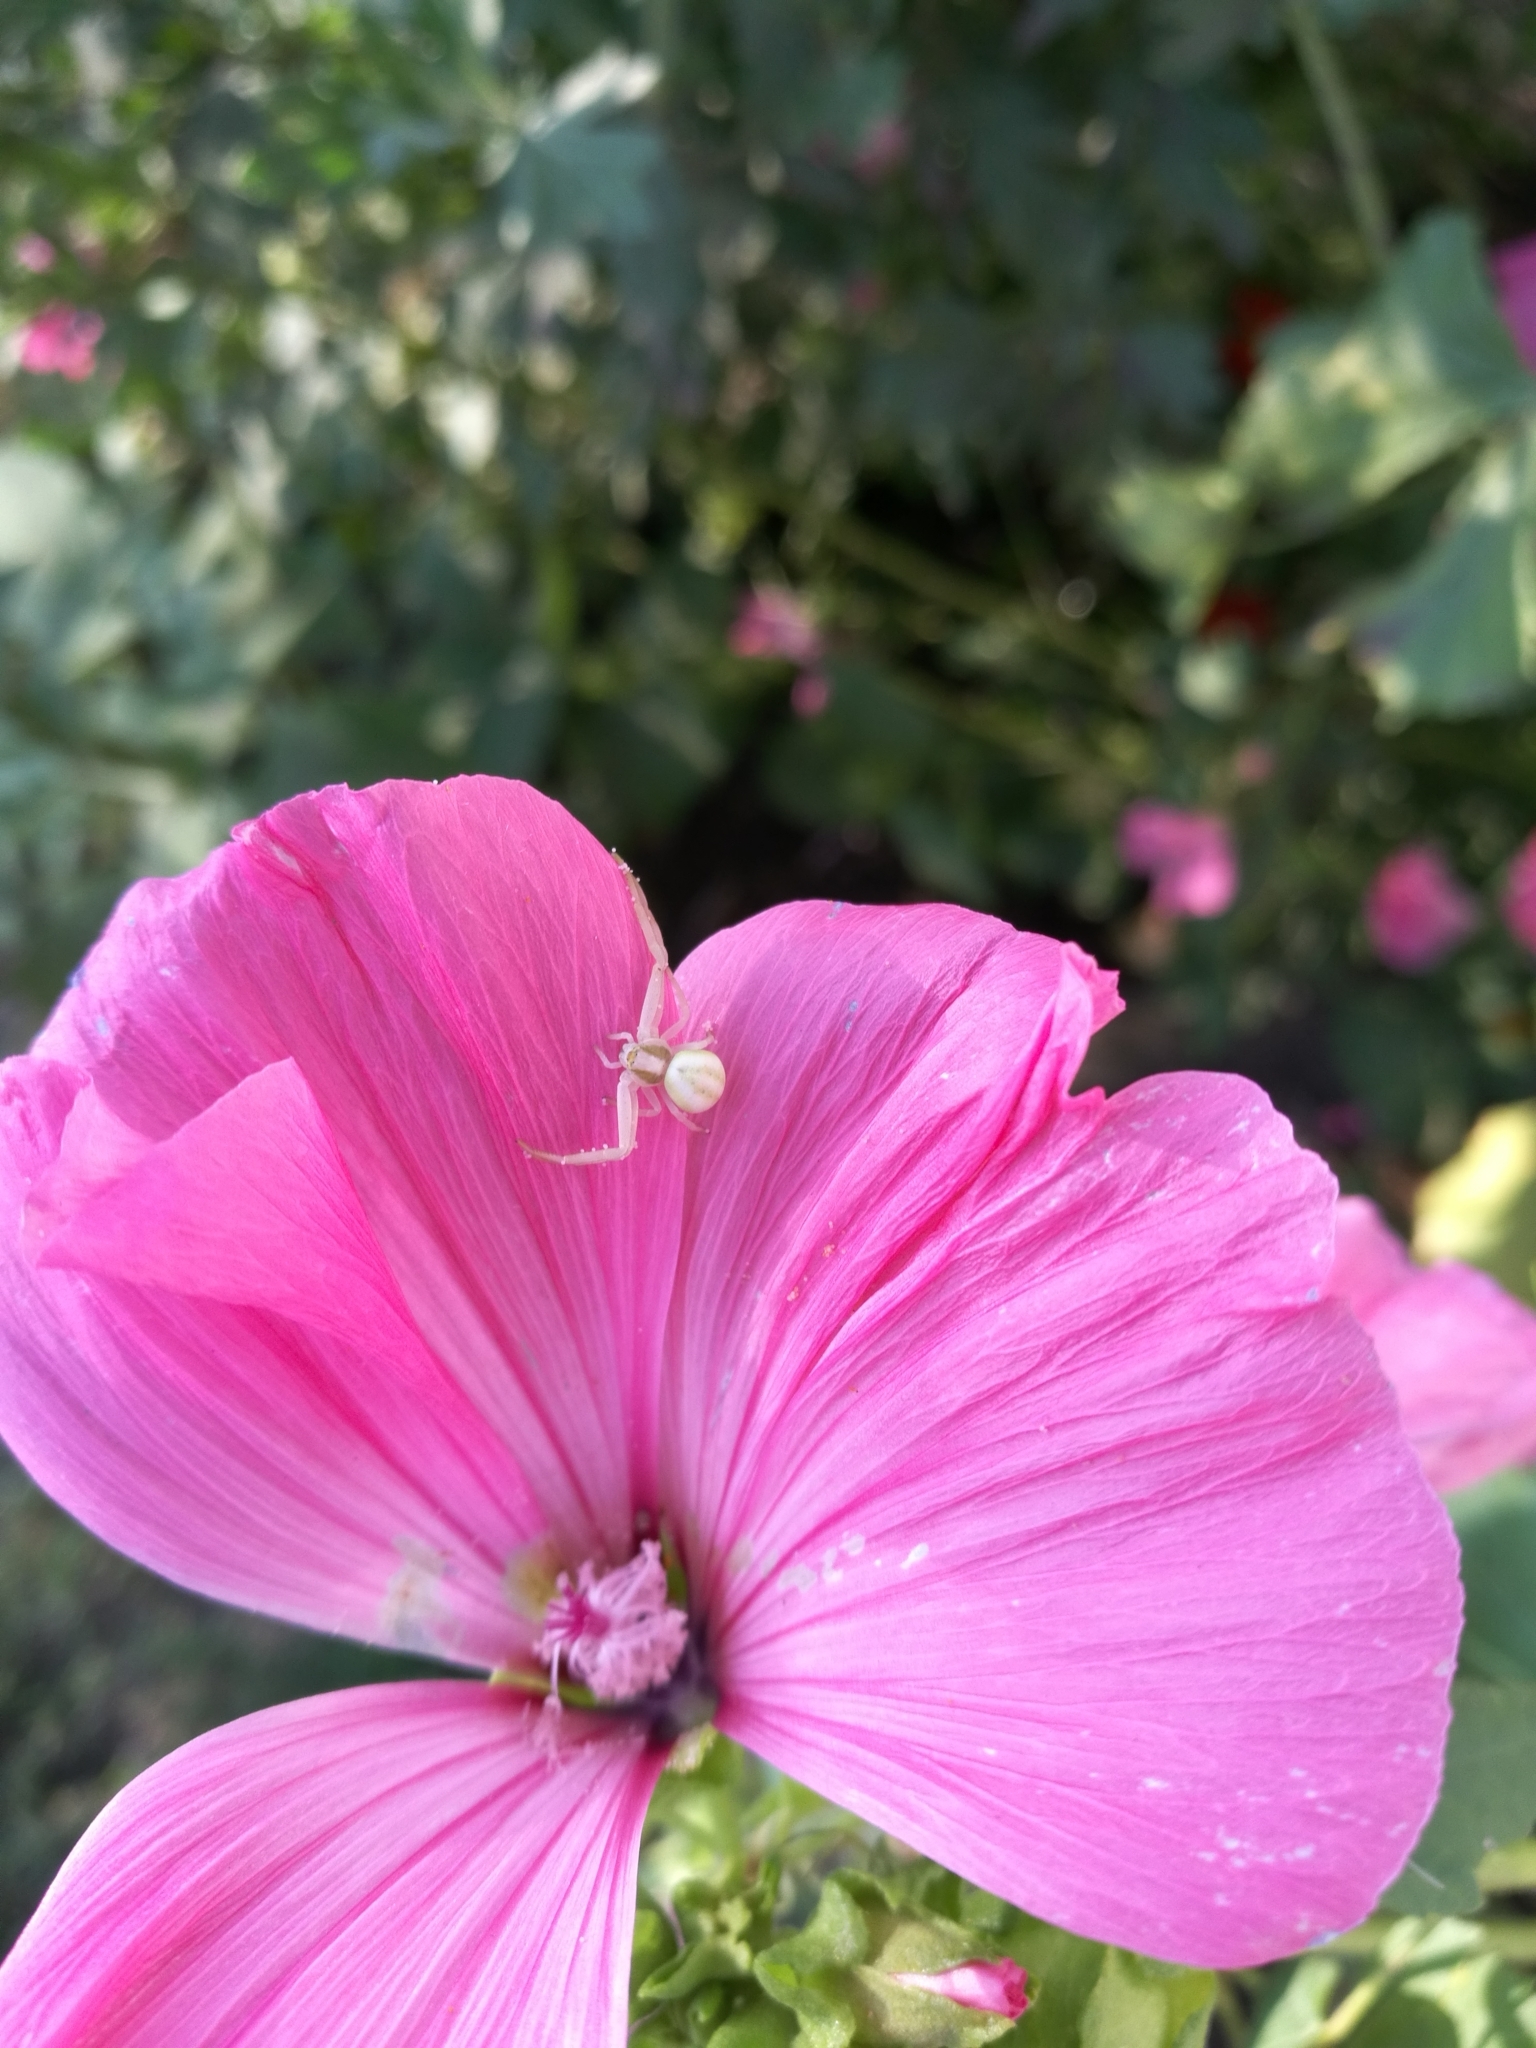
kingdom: Animalia
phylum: Arthropoda
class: Arachnida
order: Araneae
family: Thomisidae
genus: Misumena
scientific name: Misumena vatia
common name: Goldenrod crab spider
